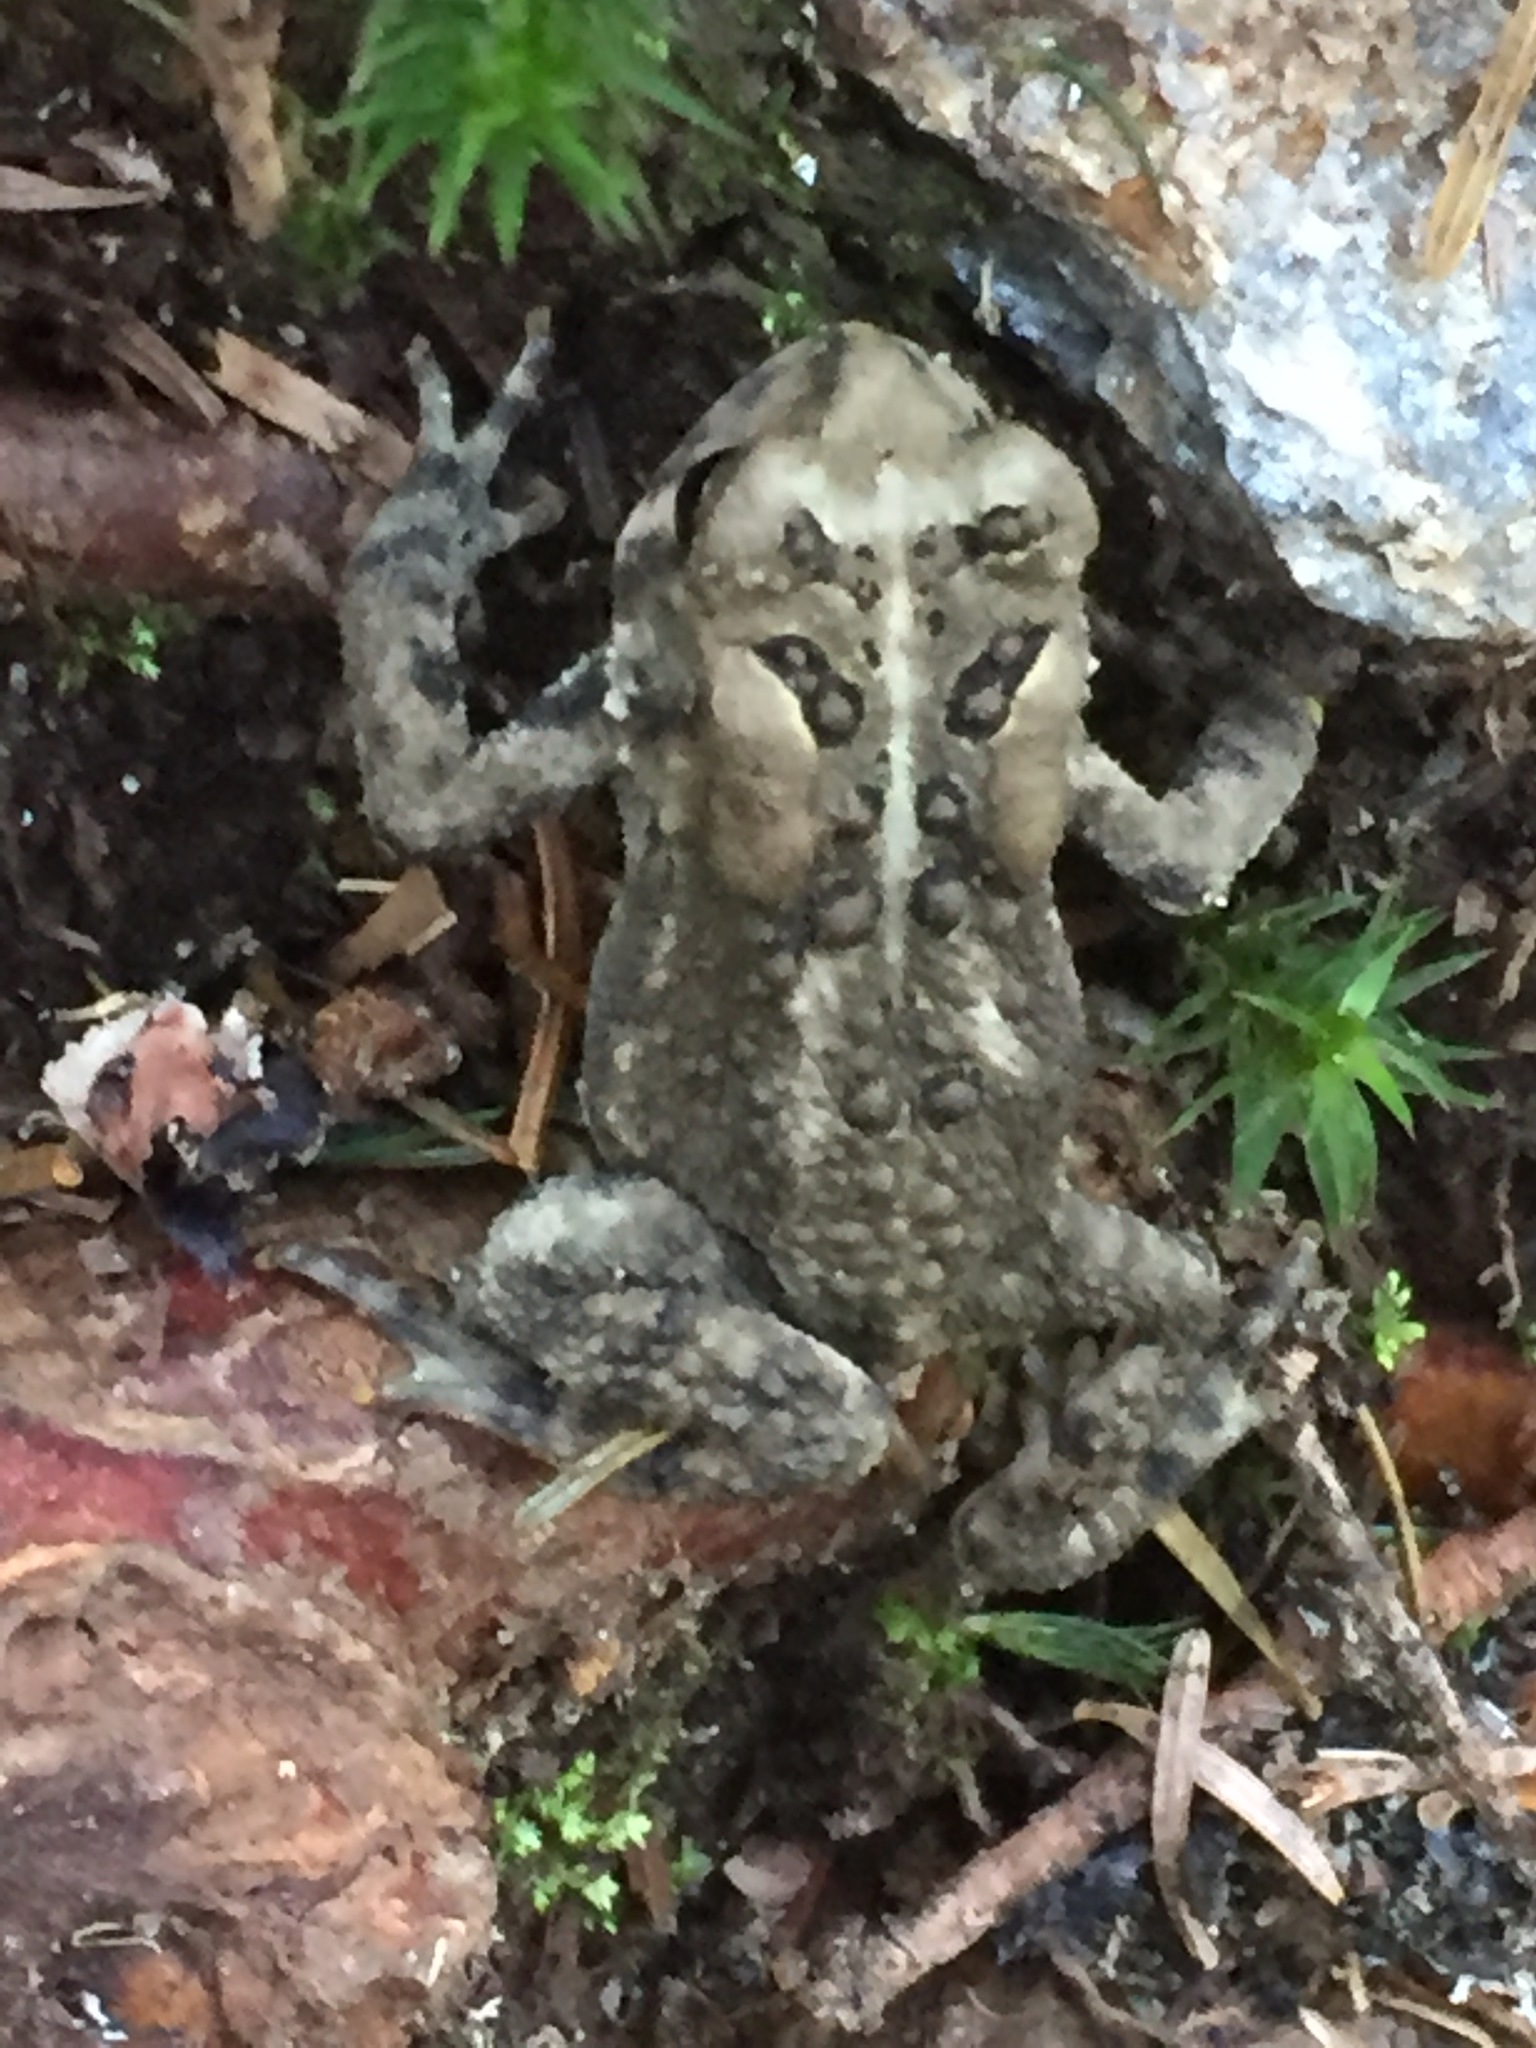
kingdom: Animalia
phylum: Chordata
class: Amphibia
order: Anura
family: Bufonidae
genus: Anaxyrus
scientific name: Anaxyrus americanus
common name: American toad
